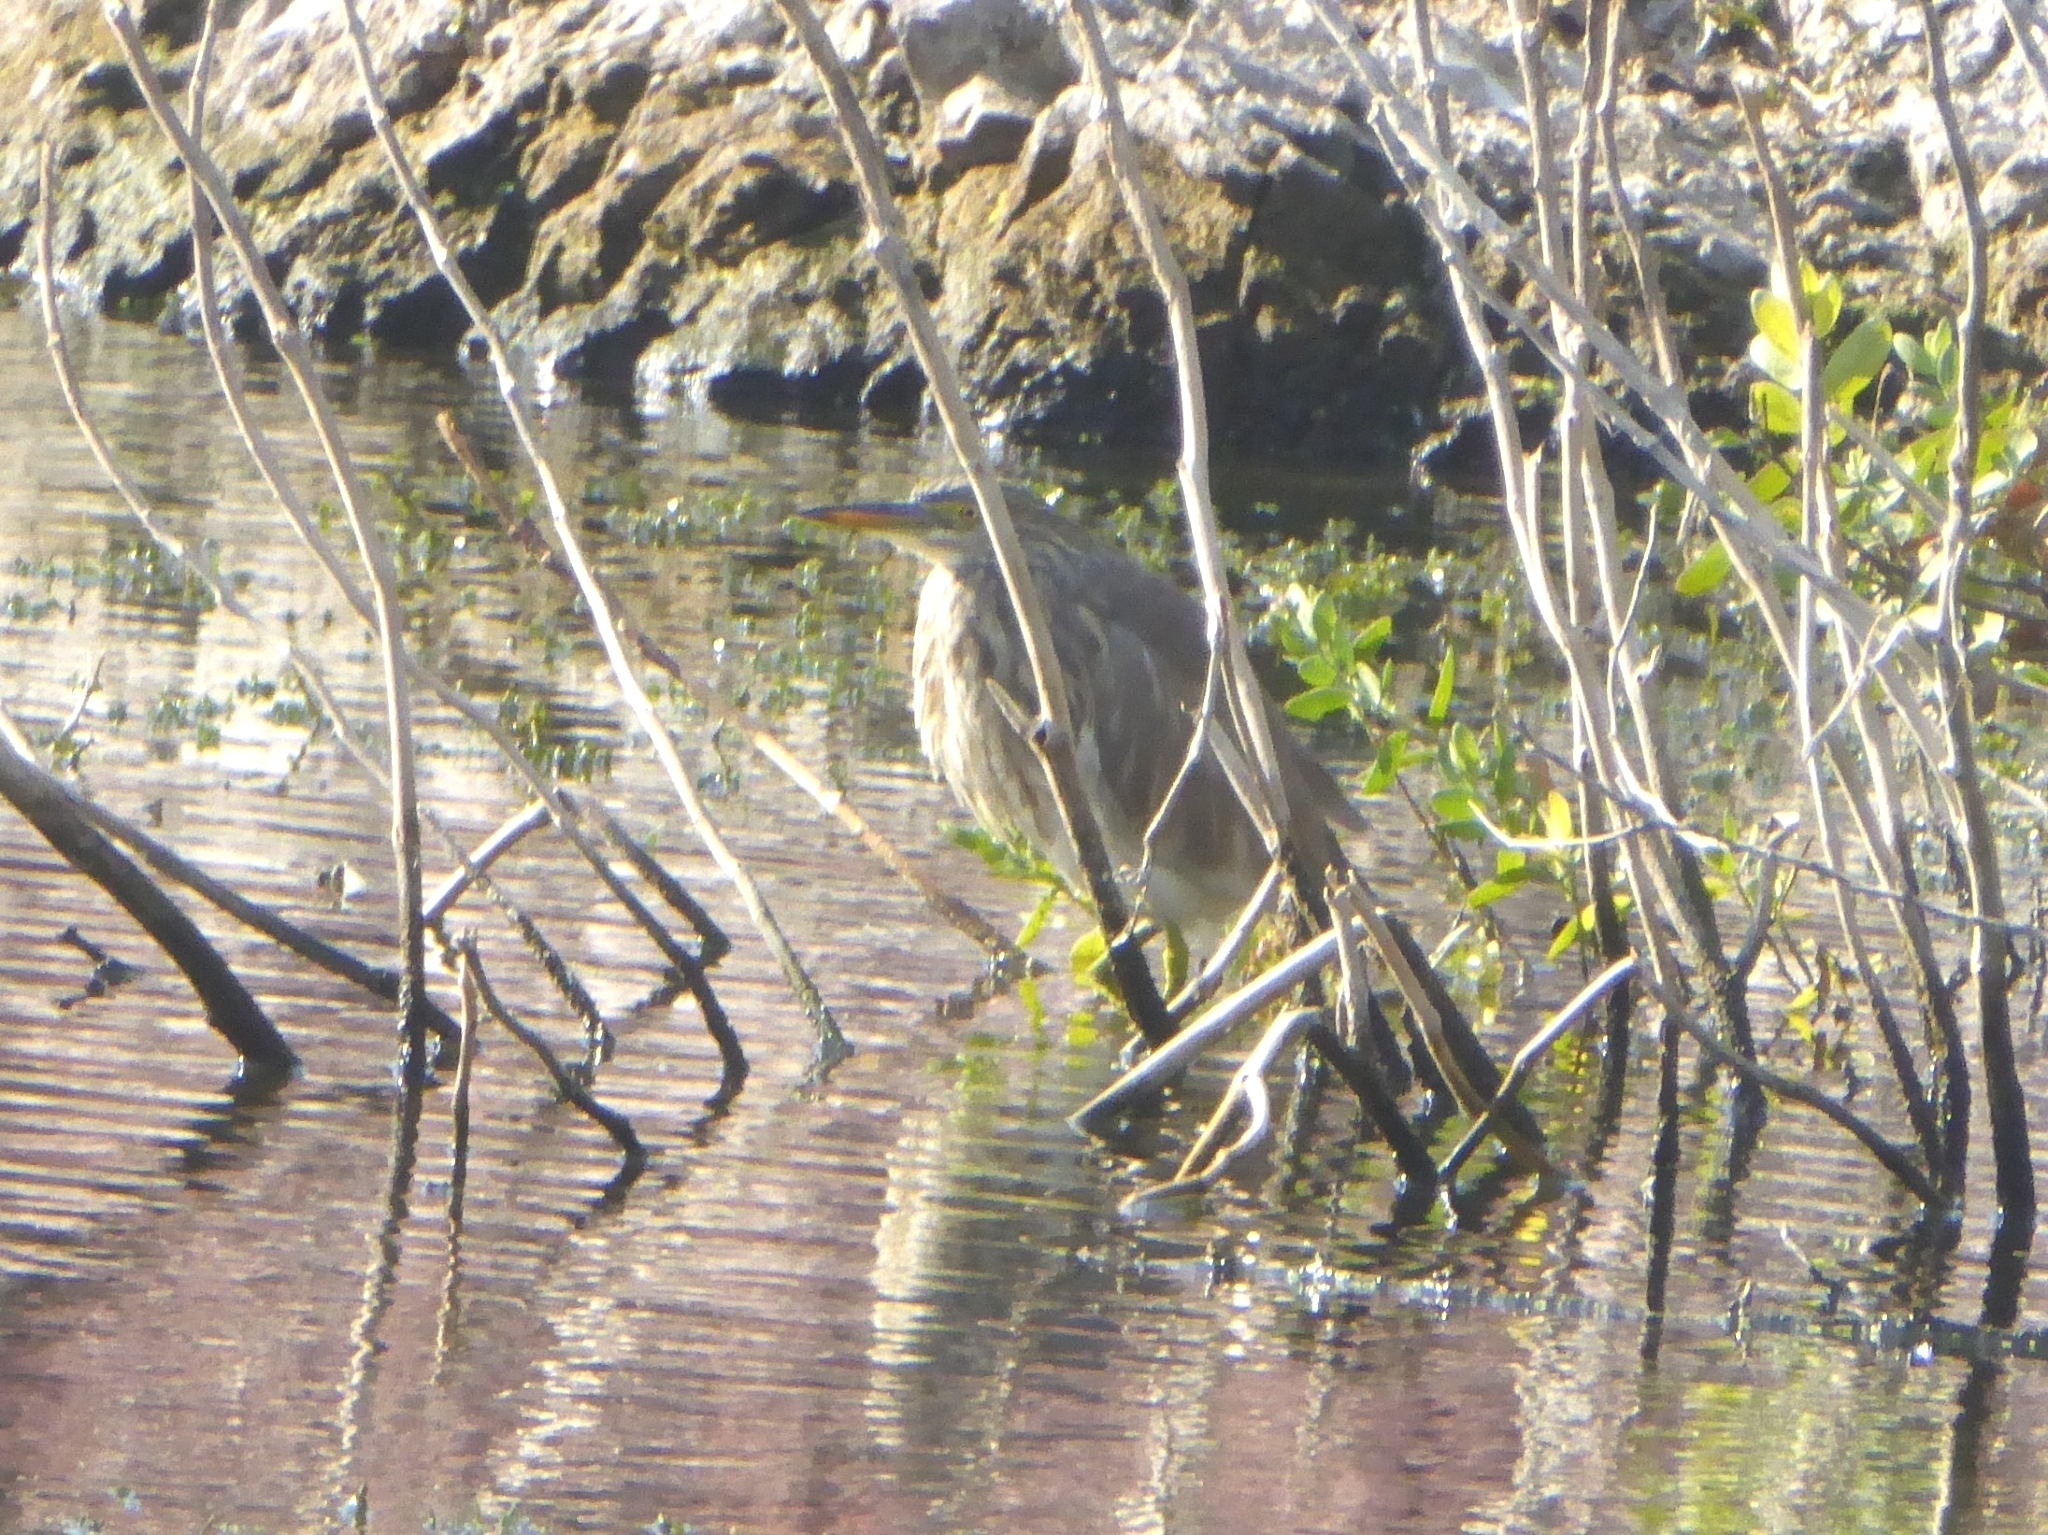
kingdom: Animalia
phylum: Chordata
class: Aves
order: Pelecaniformes
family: Ardeidae
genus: Ardeola
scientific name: Ardeola grayii
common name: Indian pond heron
